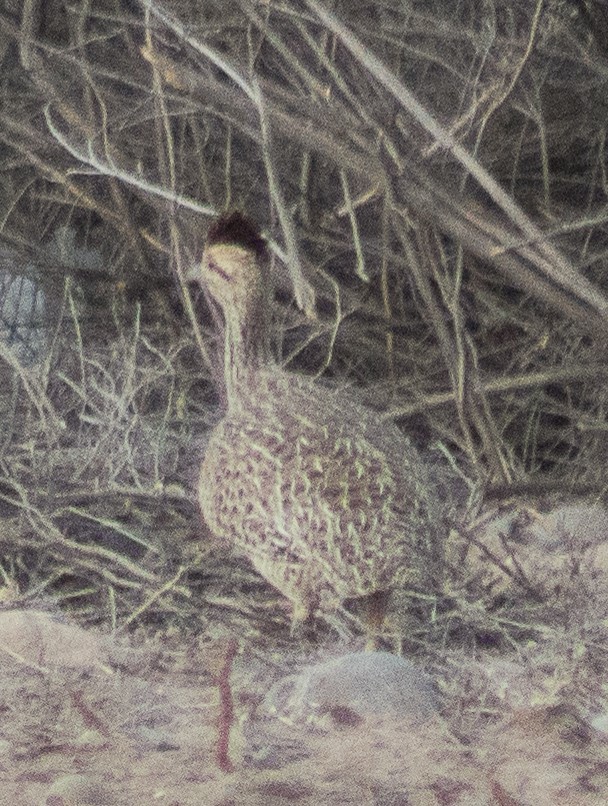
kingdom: Animalia
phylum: Chordata
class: Aves
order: Tinamiformes
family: Tinamidae
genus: Nothoprocta
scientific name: Nothoprocta cinerascens
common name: Brushland tinamou
